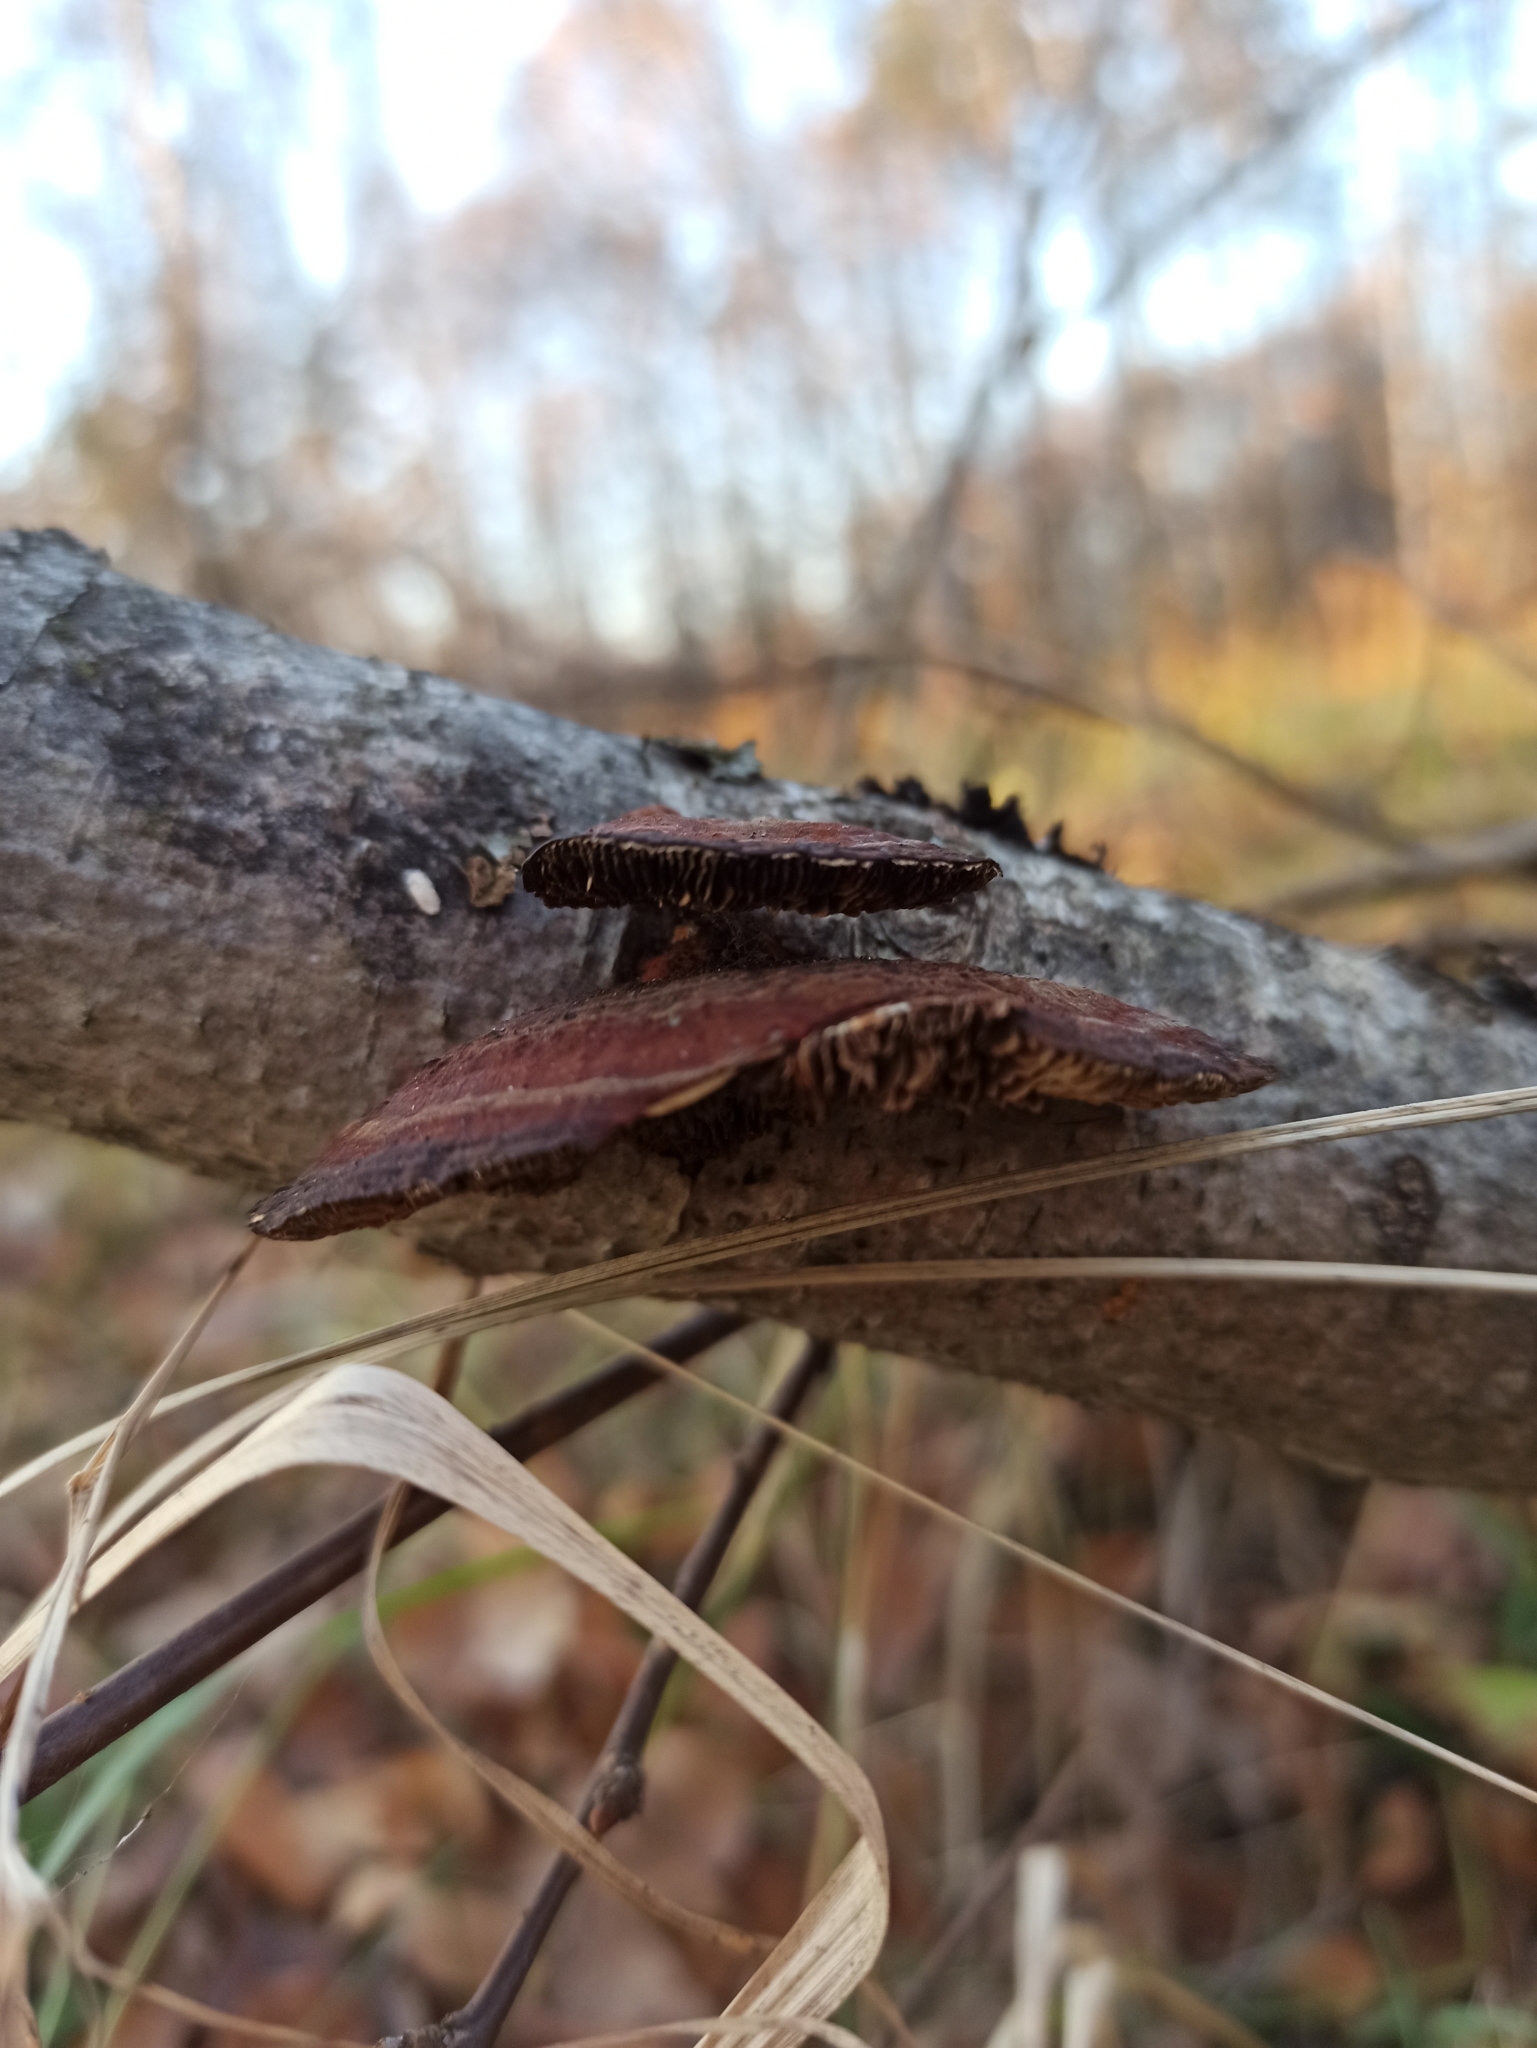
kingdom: Fungi
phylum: Basidiomycota
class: Agaricomycetes
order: Polyporales
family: Polyporaceae
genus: Daedaleopsis
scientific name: Daedaleopsis tricolor
